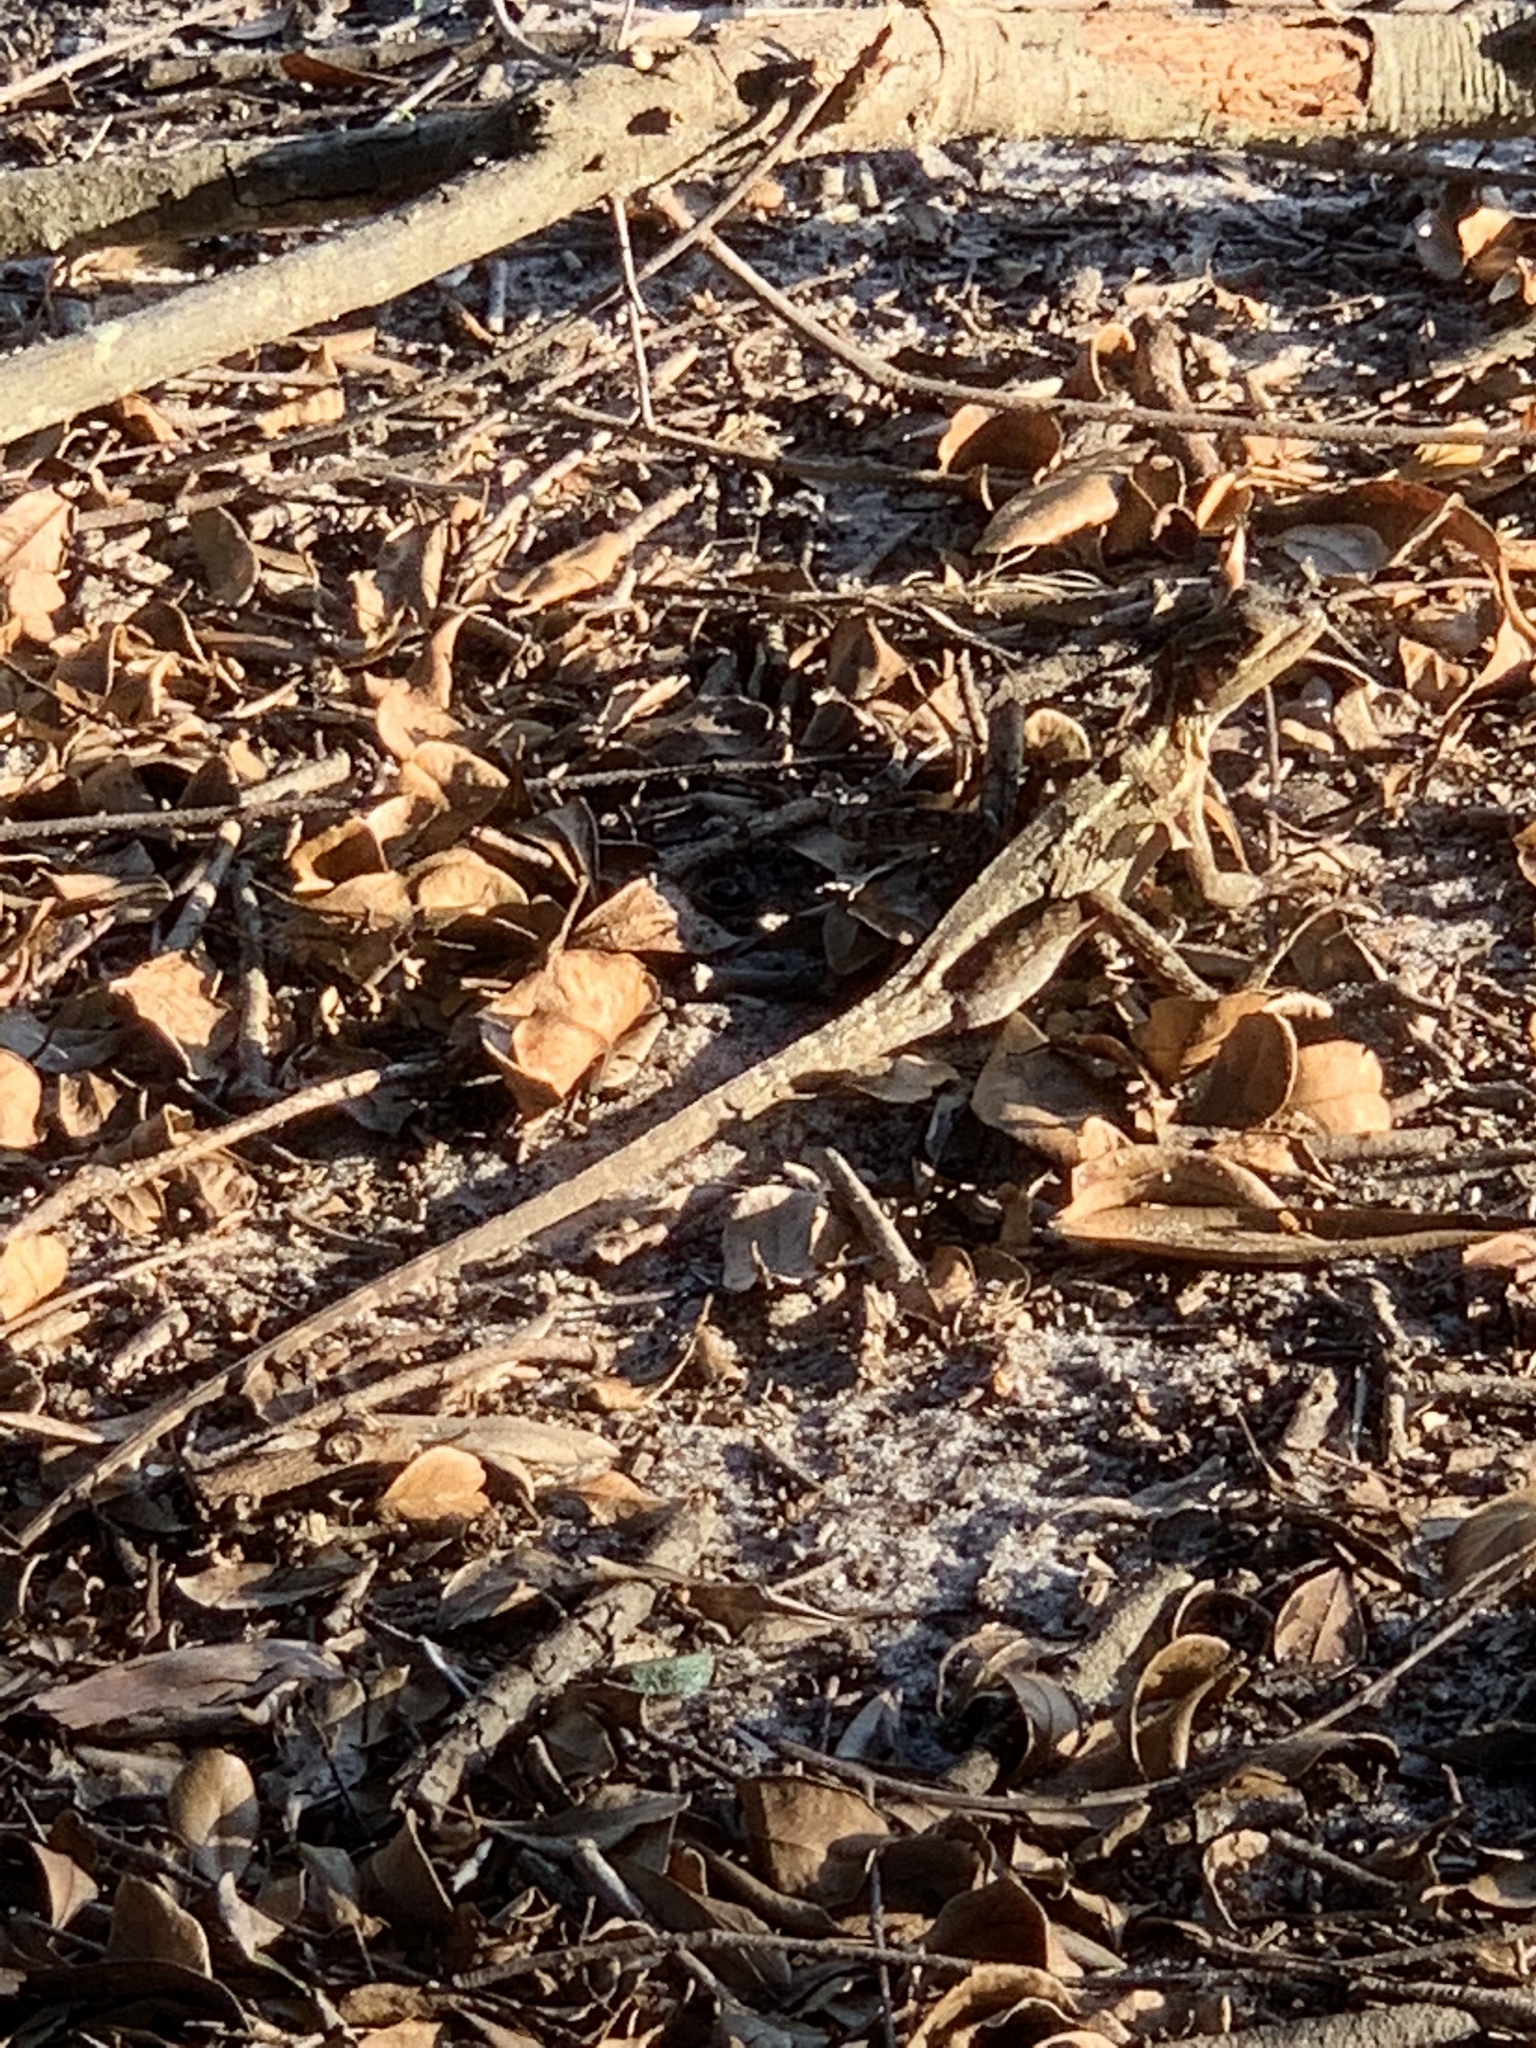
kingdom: Animalia
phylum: Chordata
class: Squamata
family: Corytophanidae
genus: Basiliscus
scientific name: Basiliscus vittatus
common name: Brown basilisk
